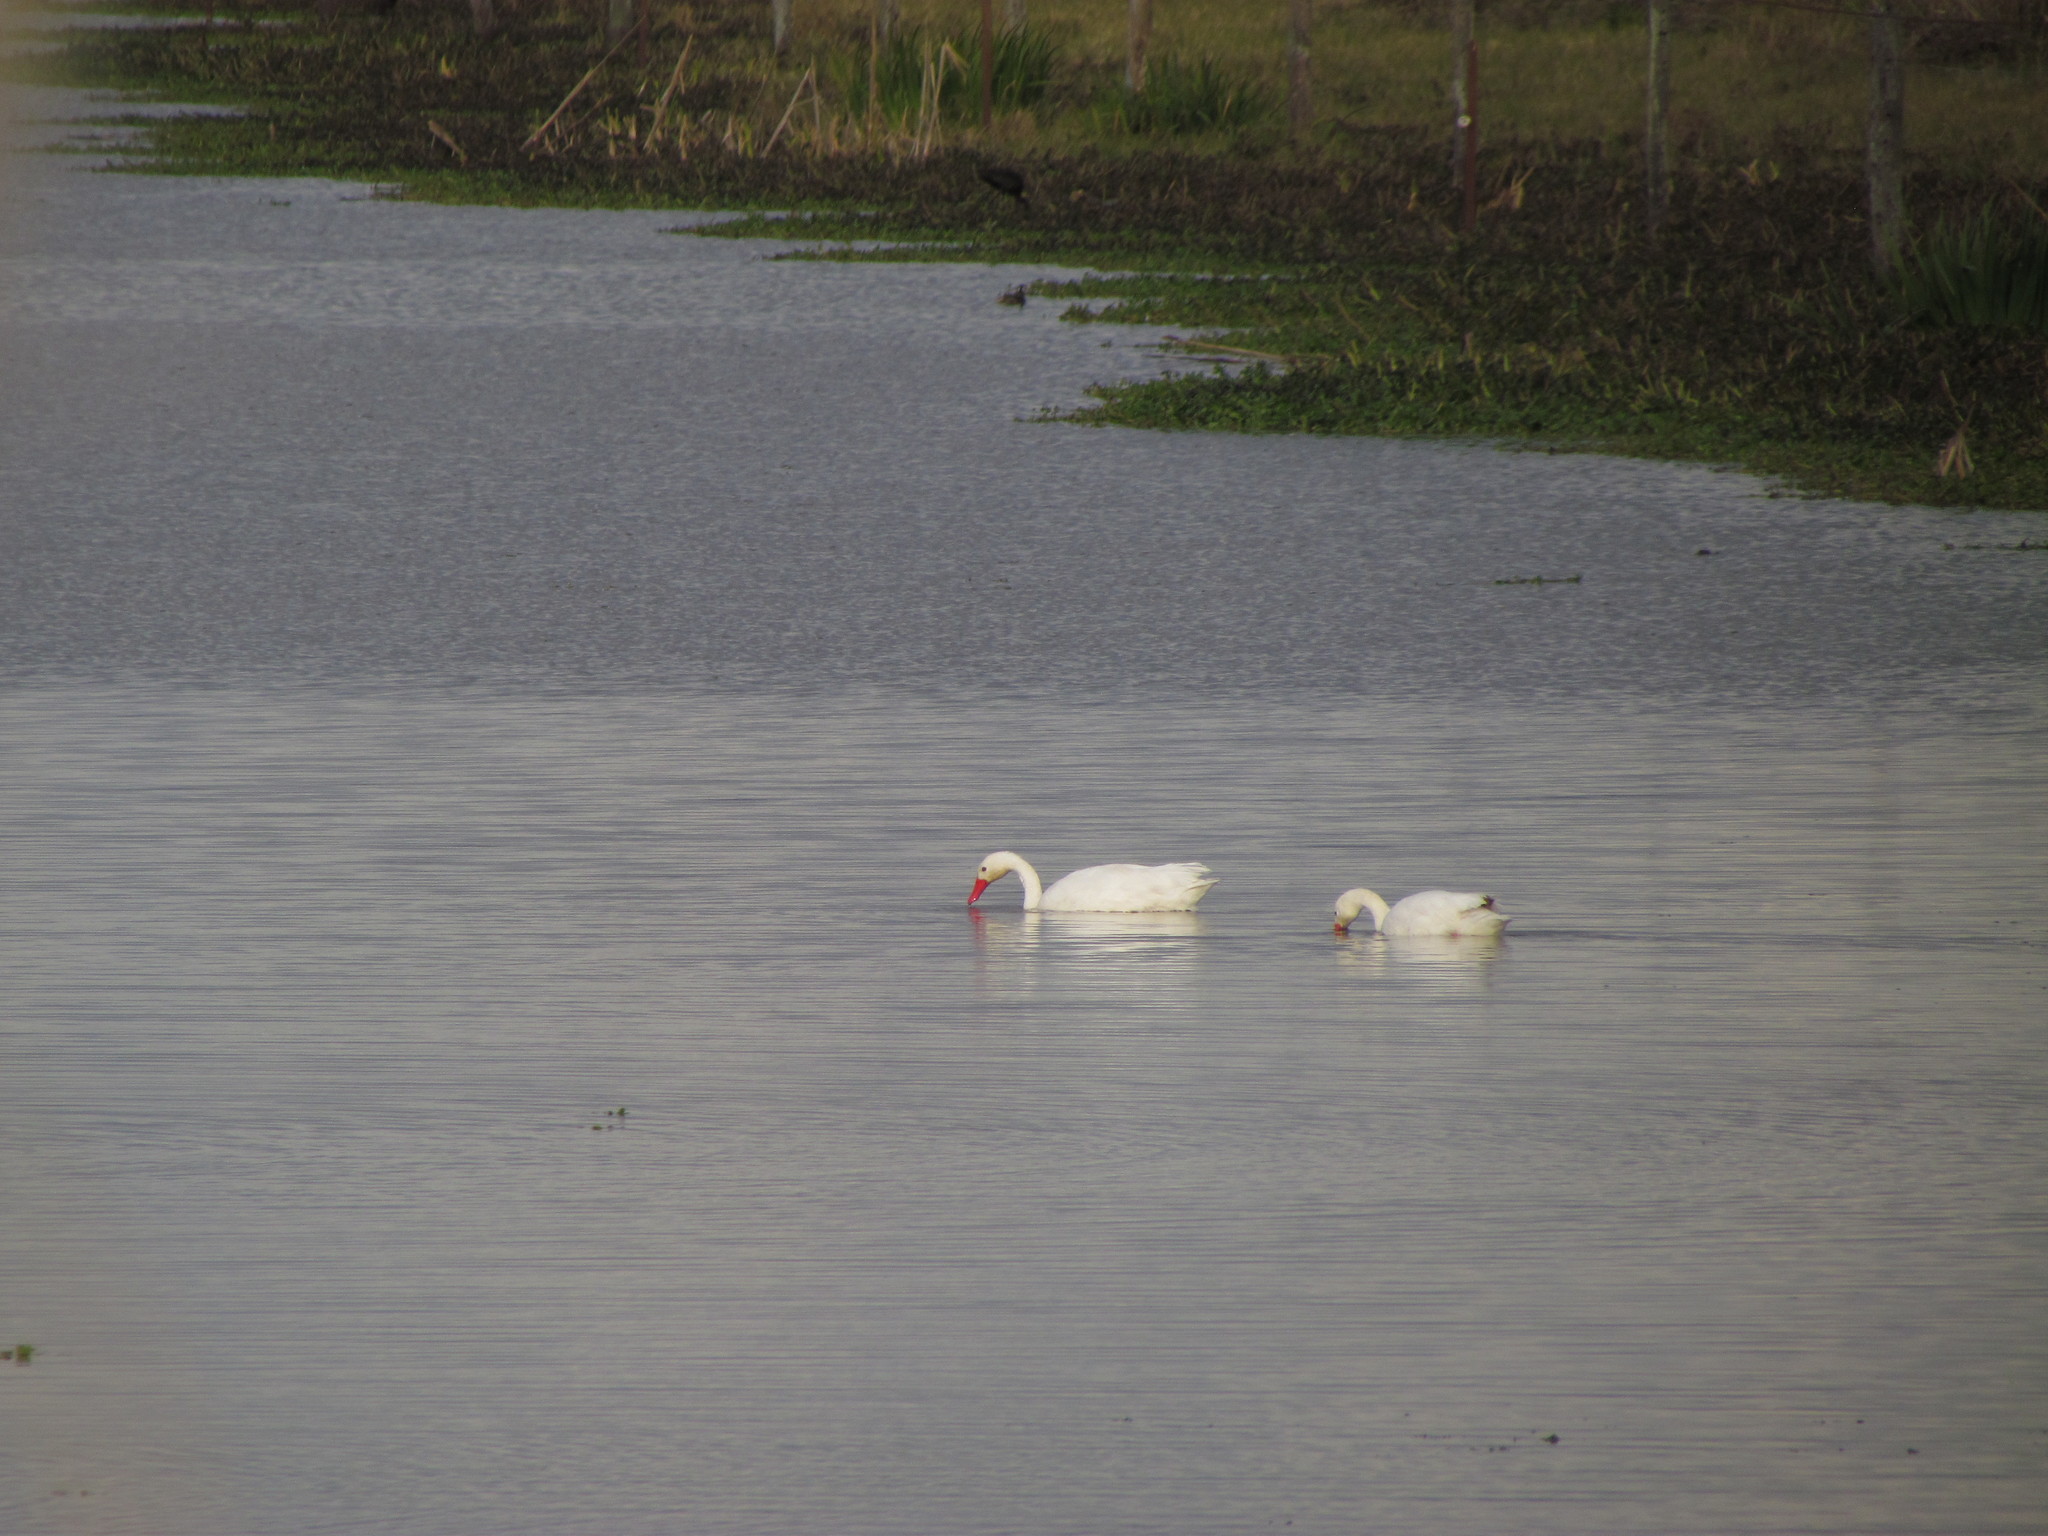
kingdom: Animalia
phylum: Chordata
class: Aves
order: Anseriformes
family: Anatidae
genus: Coscoroba
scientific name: Coscoroba coscoroba
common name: Coscoroba swan
